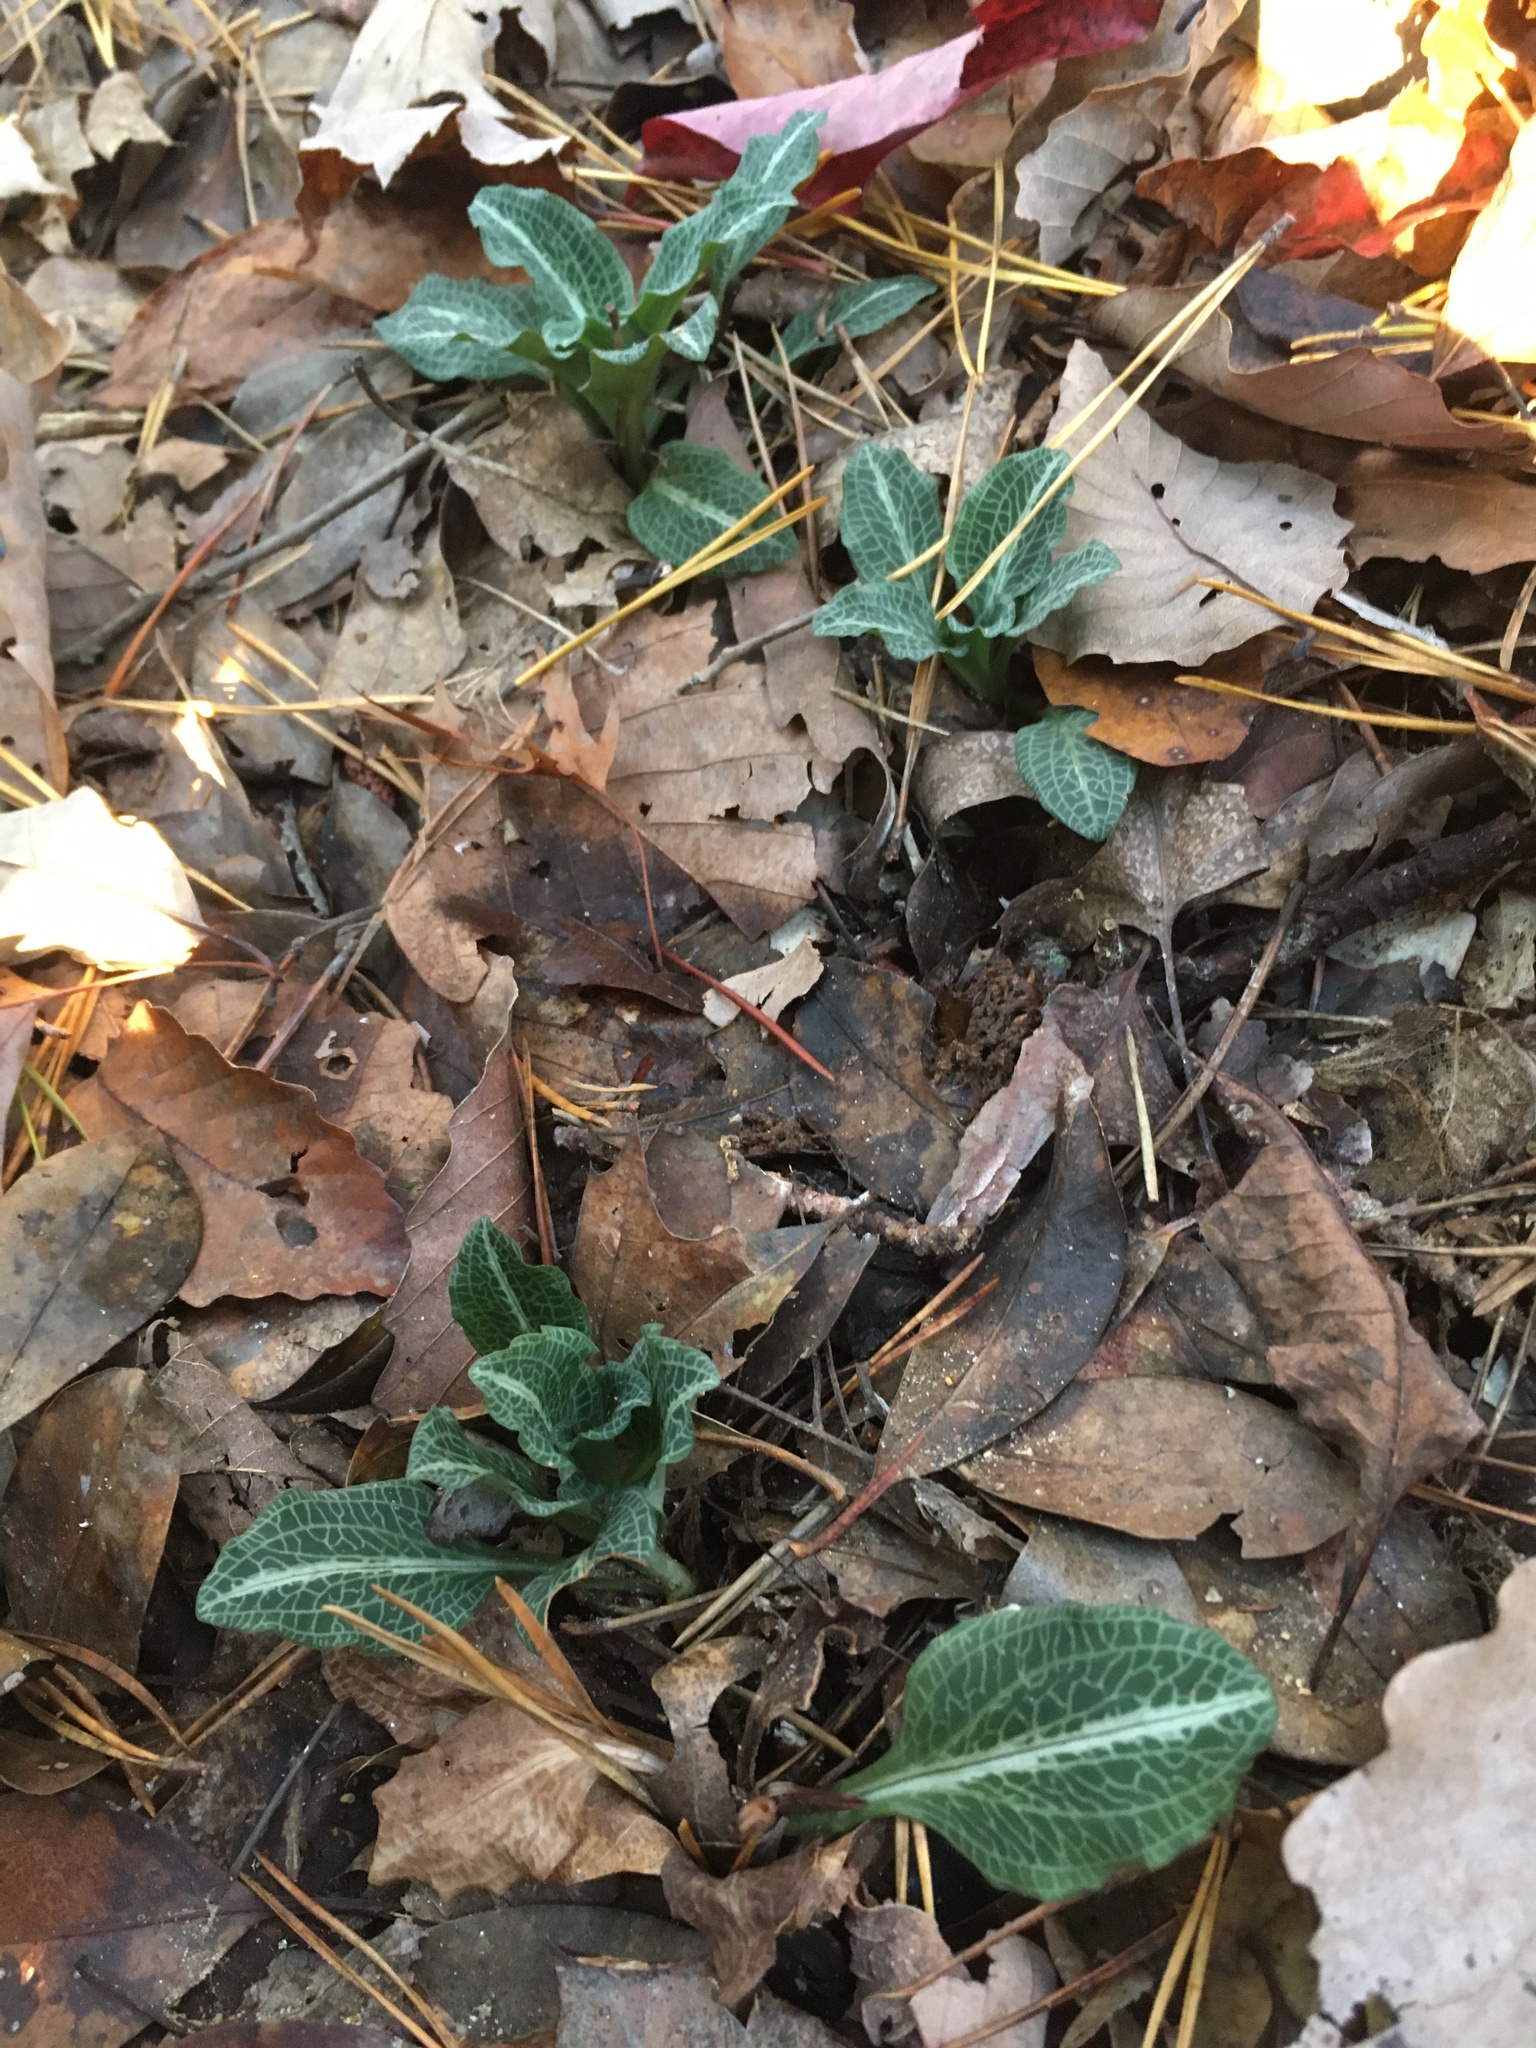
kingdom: Plantae
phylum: Tracheophyta
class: Liliopsida
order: Asparagales
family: Orchidaceae
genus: Goodyera
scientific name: Goodyera pubescens
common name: Downy rattlesnake-plantain
